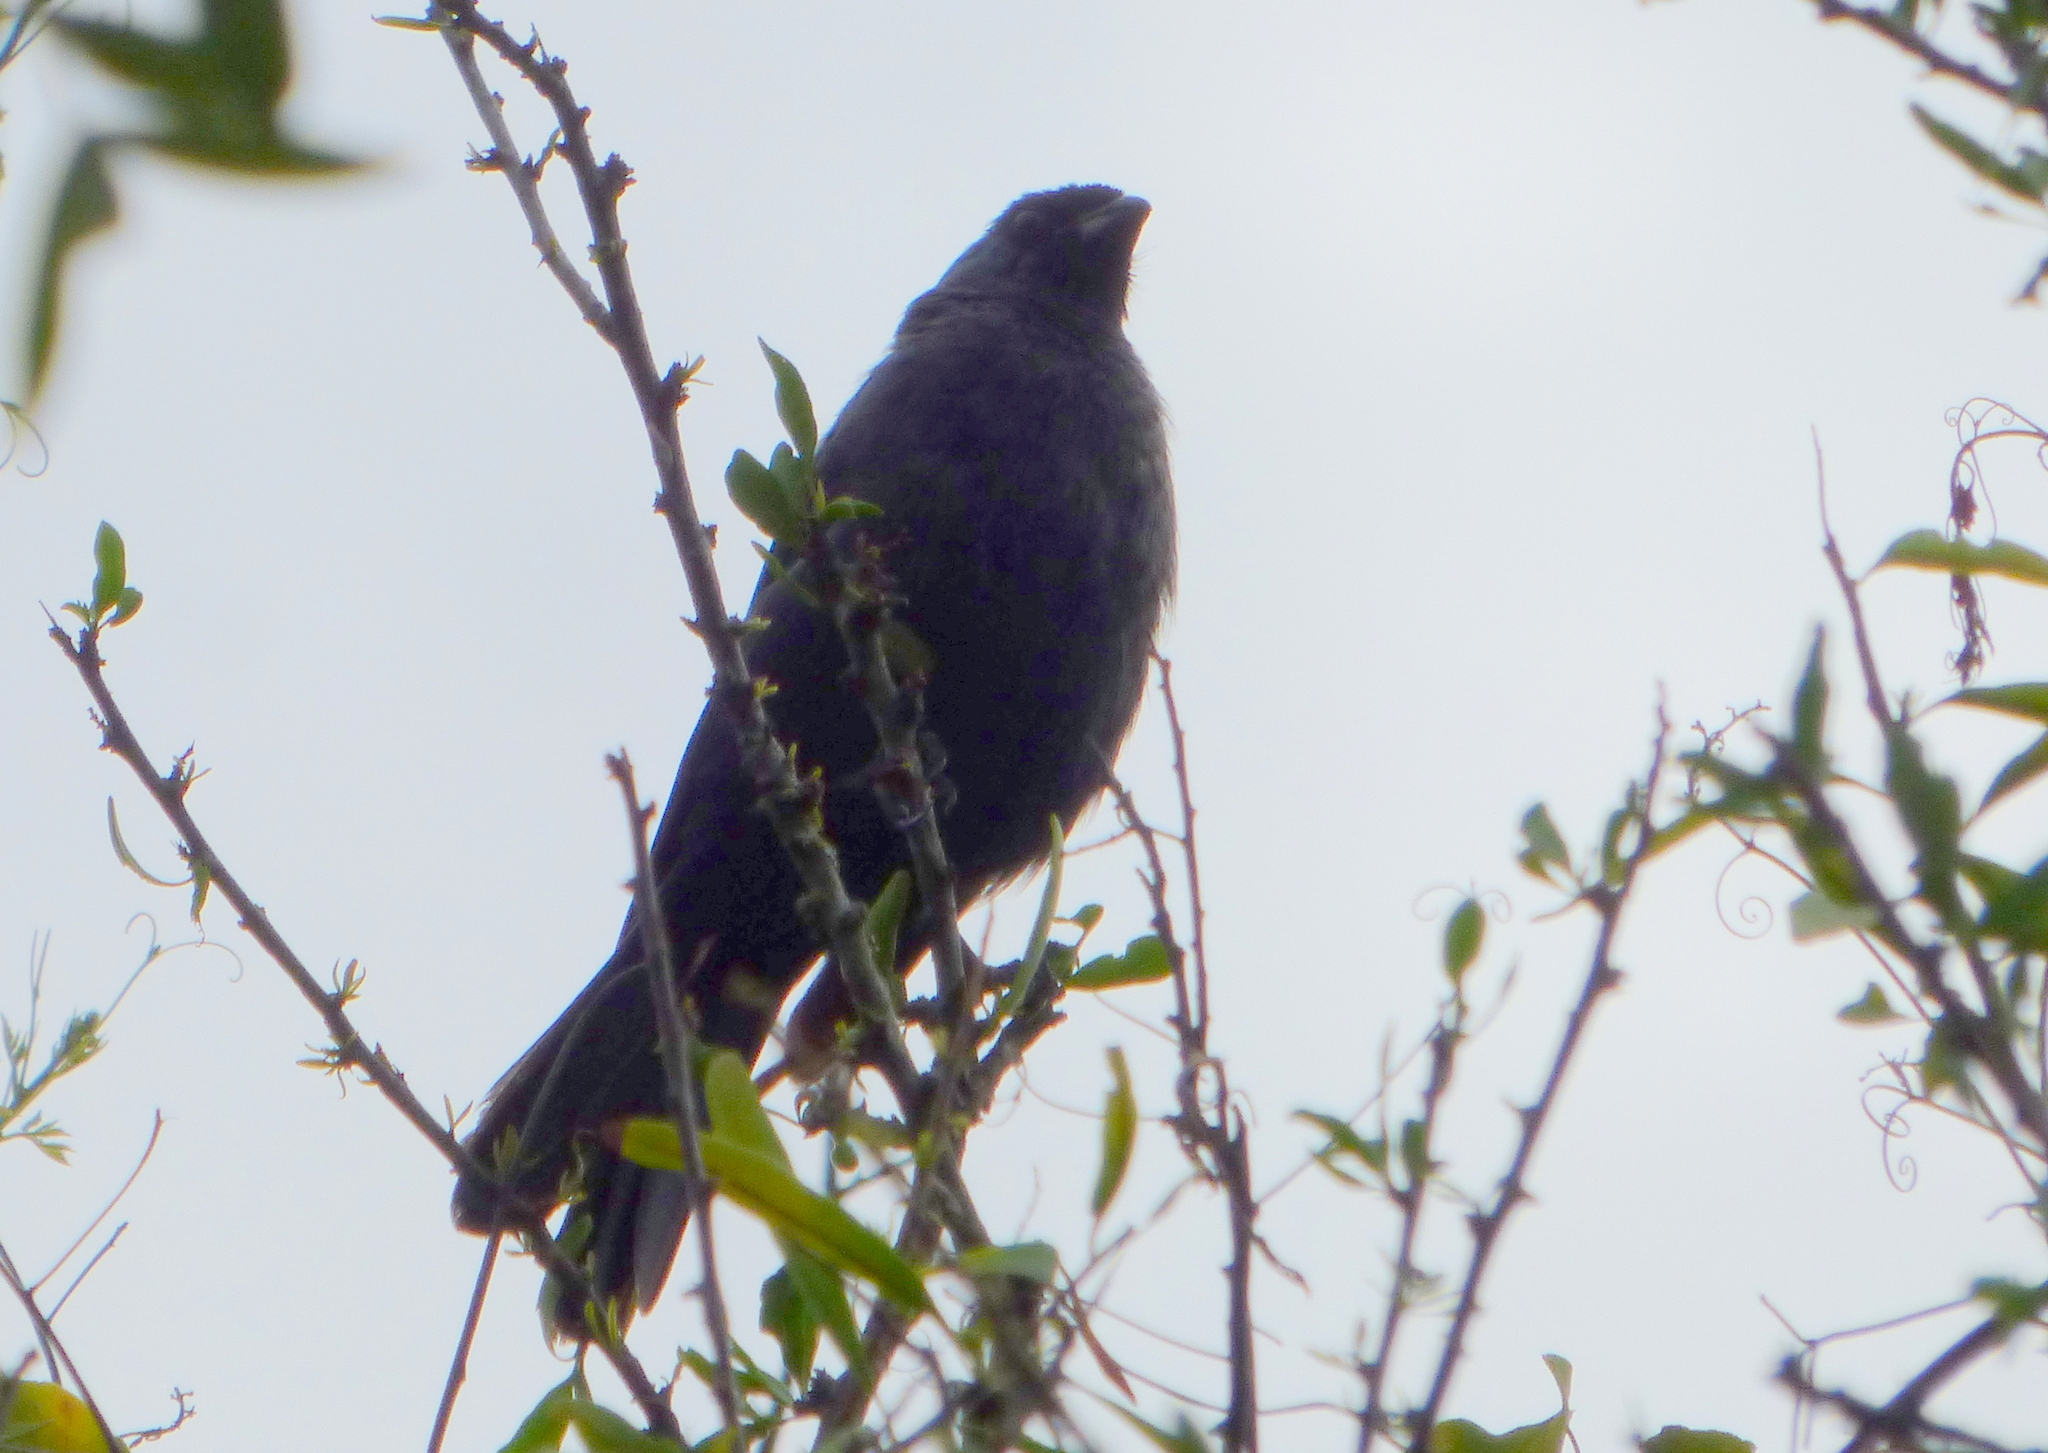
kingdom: Animalia
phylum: Chordata
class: Aves
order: Passeriformes
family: Thraupidae
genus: Stephanophorus
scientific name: Stephanophorus diadematus
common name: Diademed tanager
